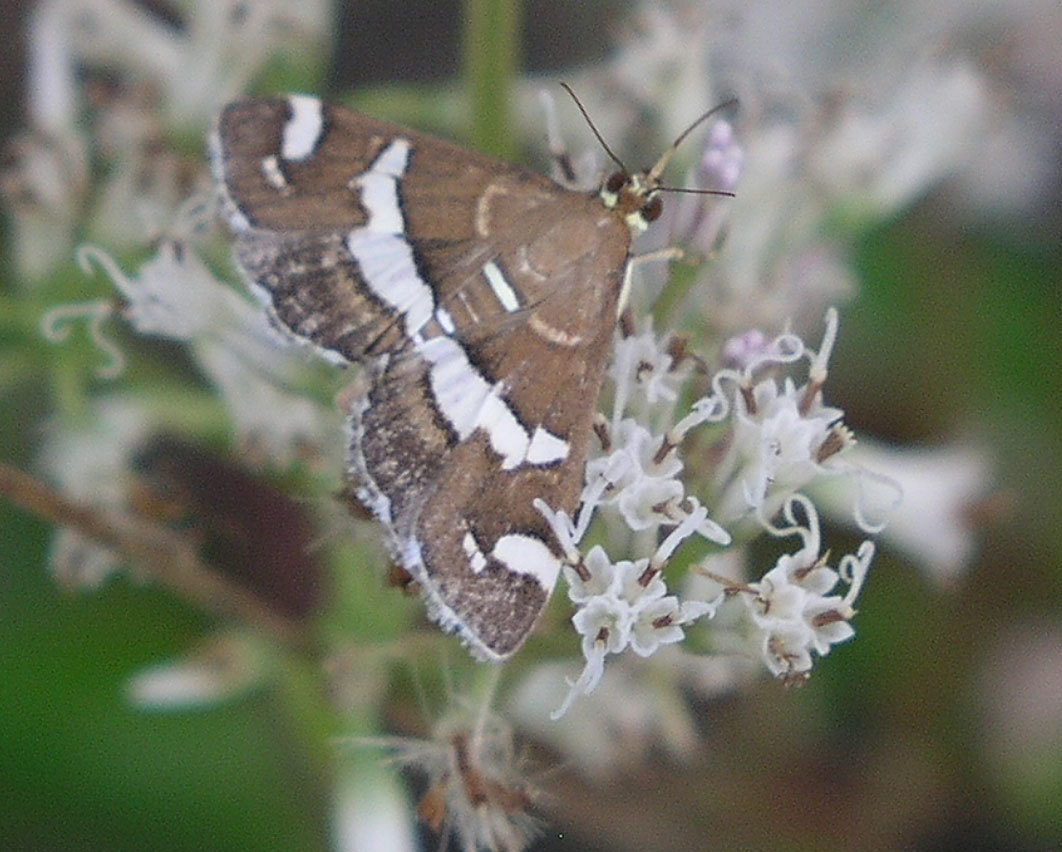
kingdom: Animalia
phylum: Arthropoda
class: Insecta
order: Lepidoptera
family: Crambidae
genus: Spoladea
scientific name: Spoladea recurvalis
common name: Beet webworm moth
